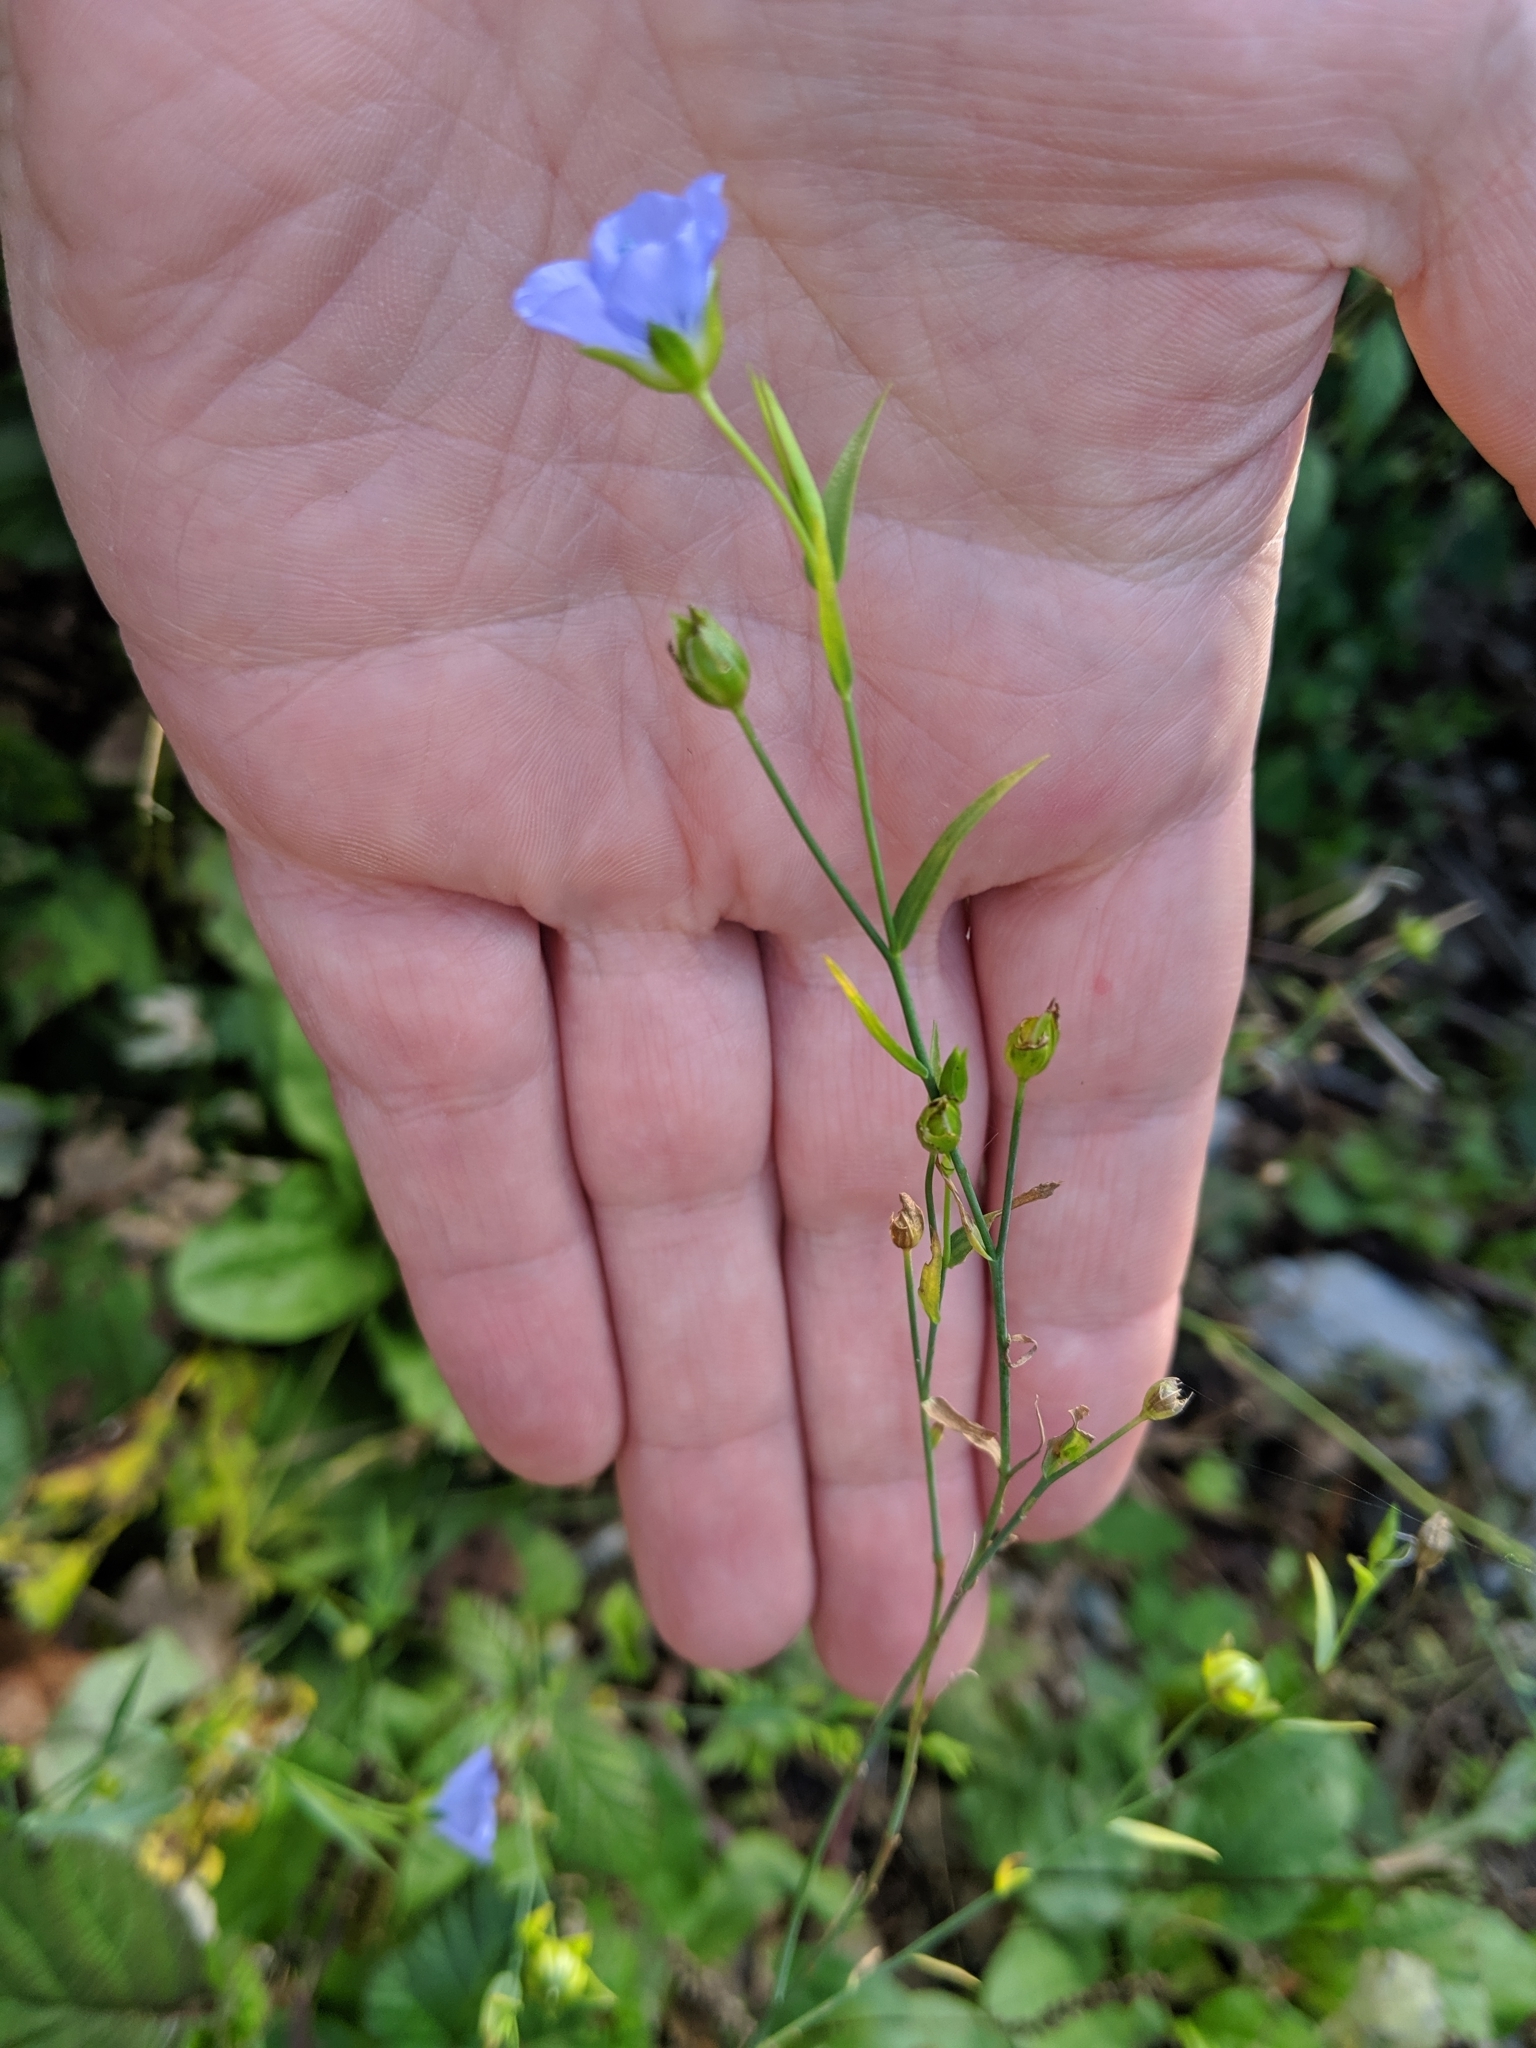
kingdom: Plantae
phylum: Tracheophyta
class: Magnoliopsida
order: Malpighiales
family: Linaceae
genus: Linum
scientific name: Linum usitatissimum
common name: Flax
